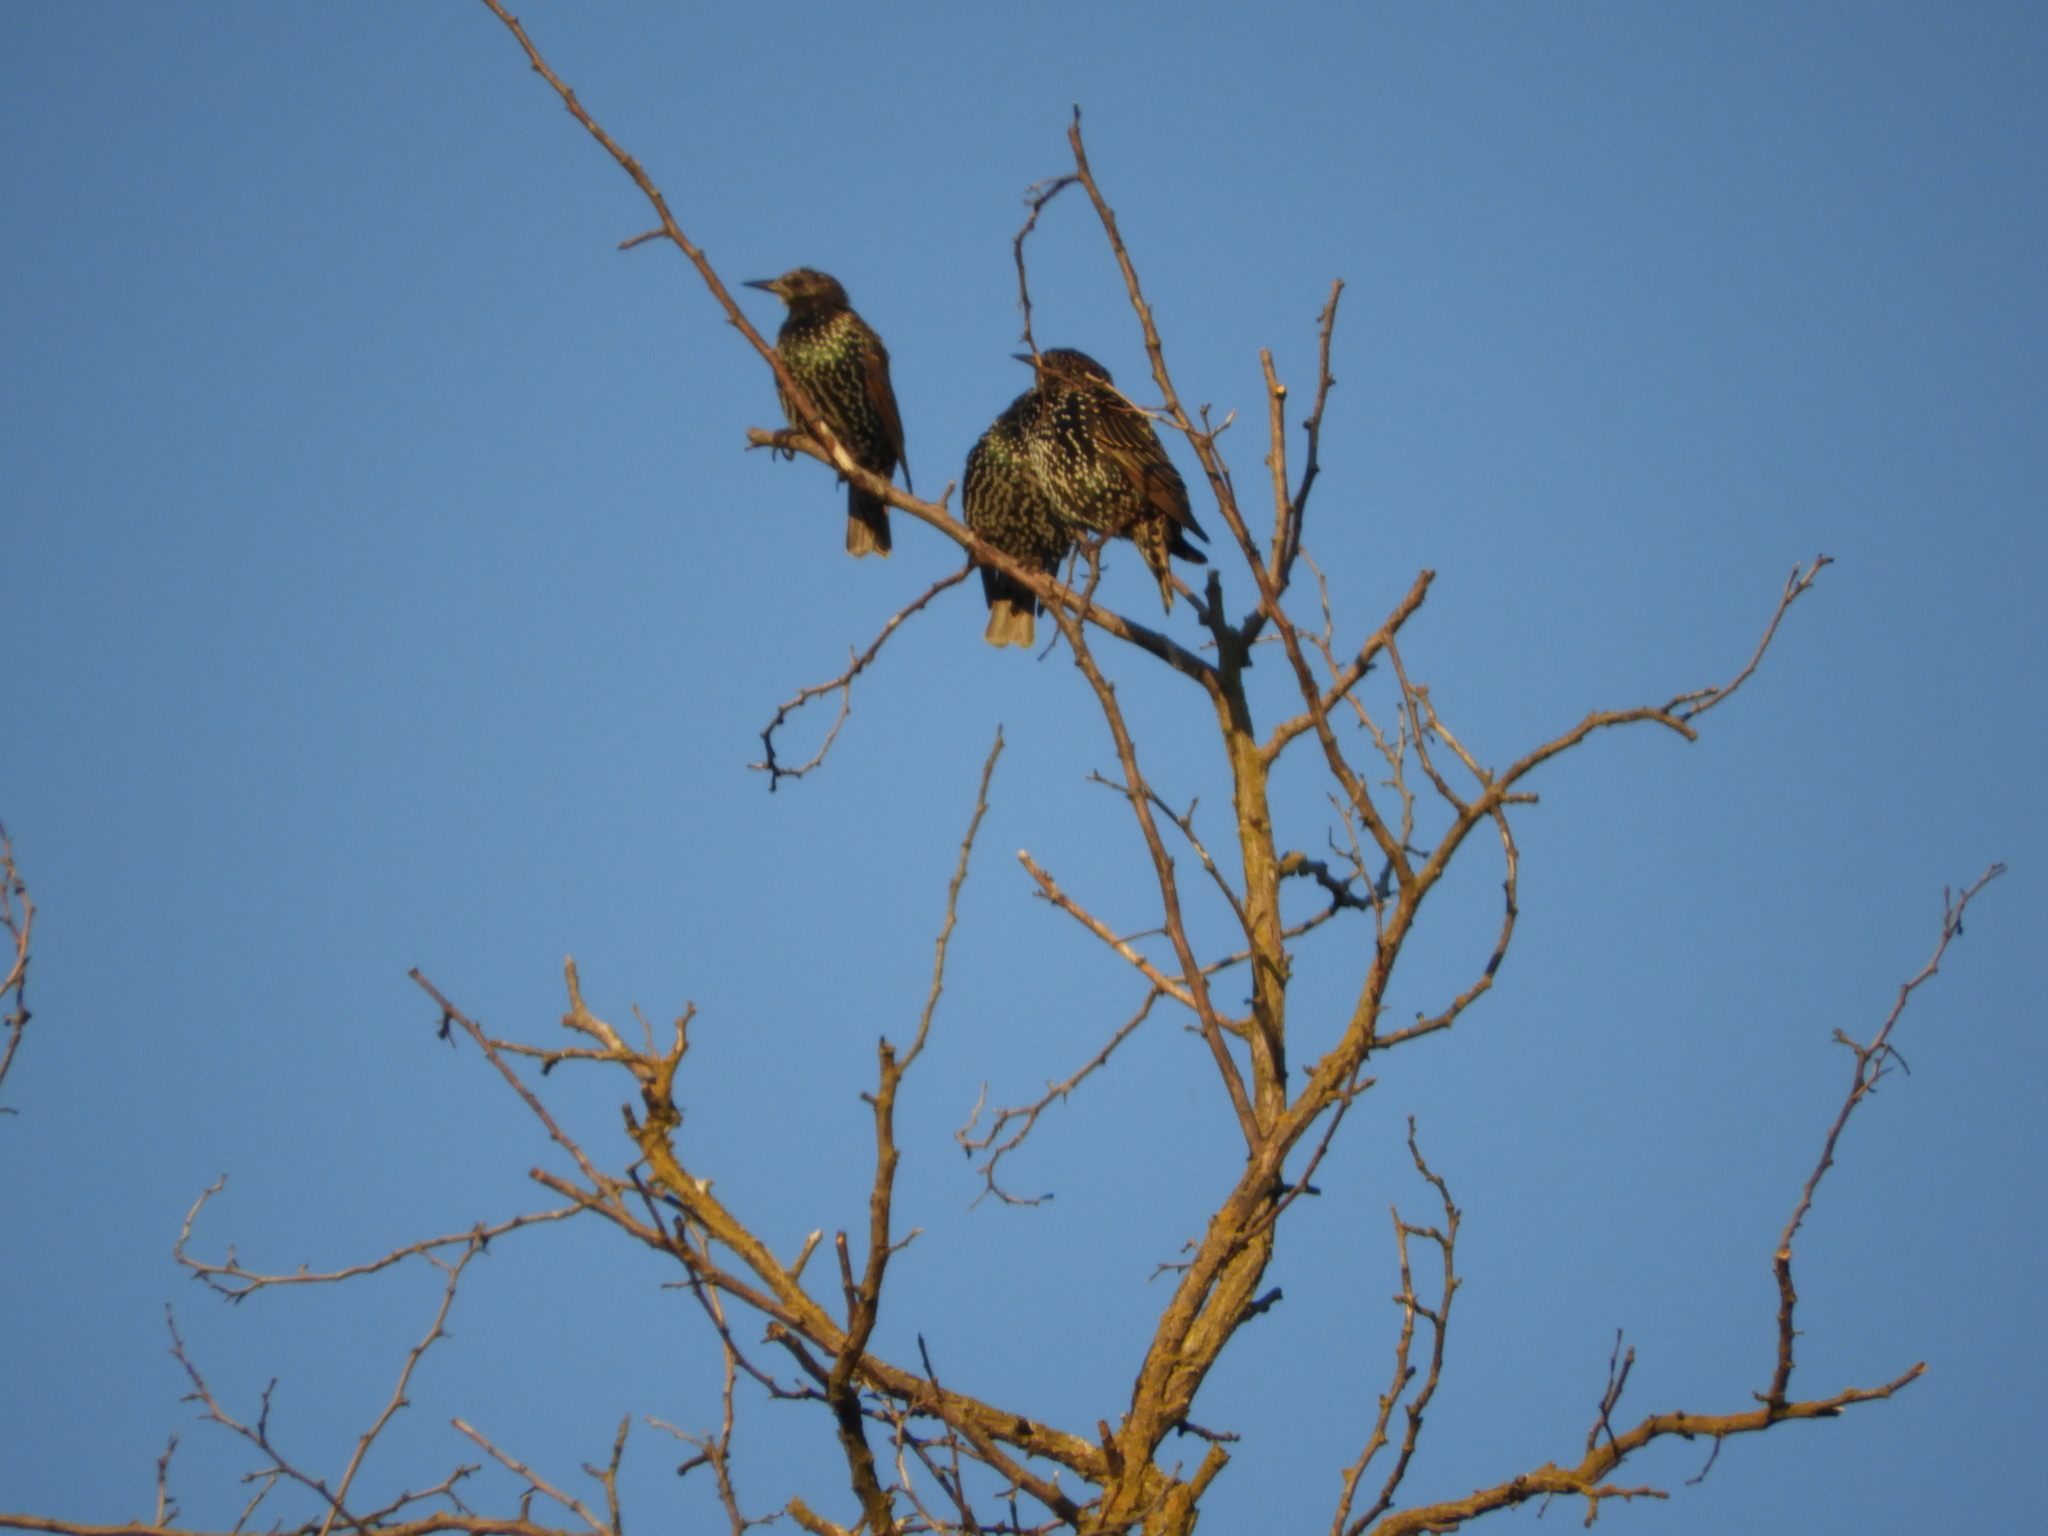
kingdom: Animalia
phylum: Chordata
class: Aves
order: Passeriformes
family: Sturnidae
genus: Sturnus
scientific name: Sturnus vulgaris
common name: Common starling
